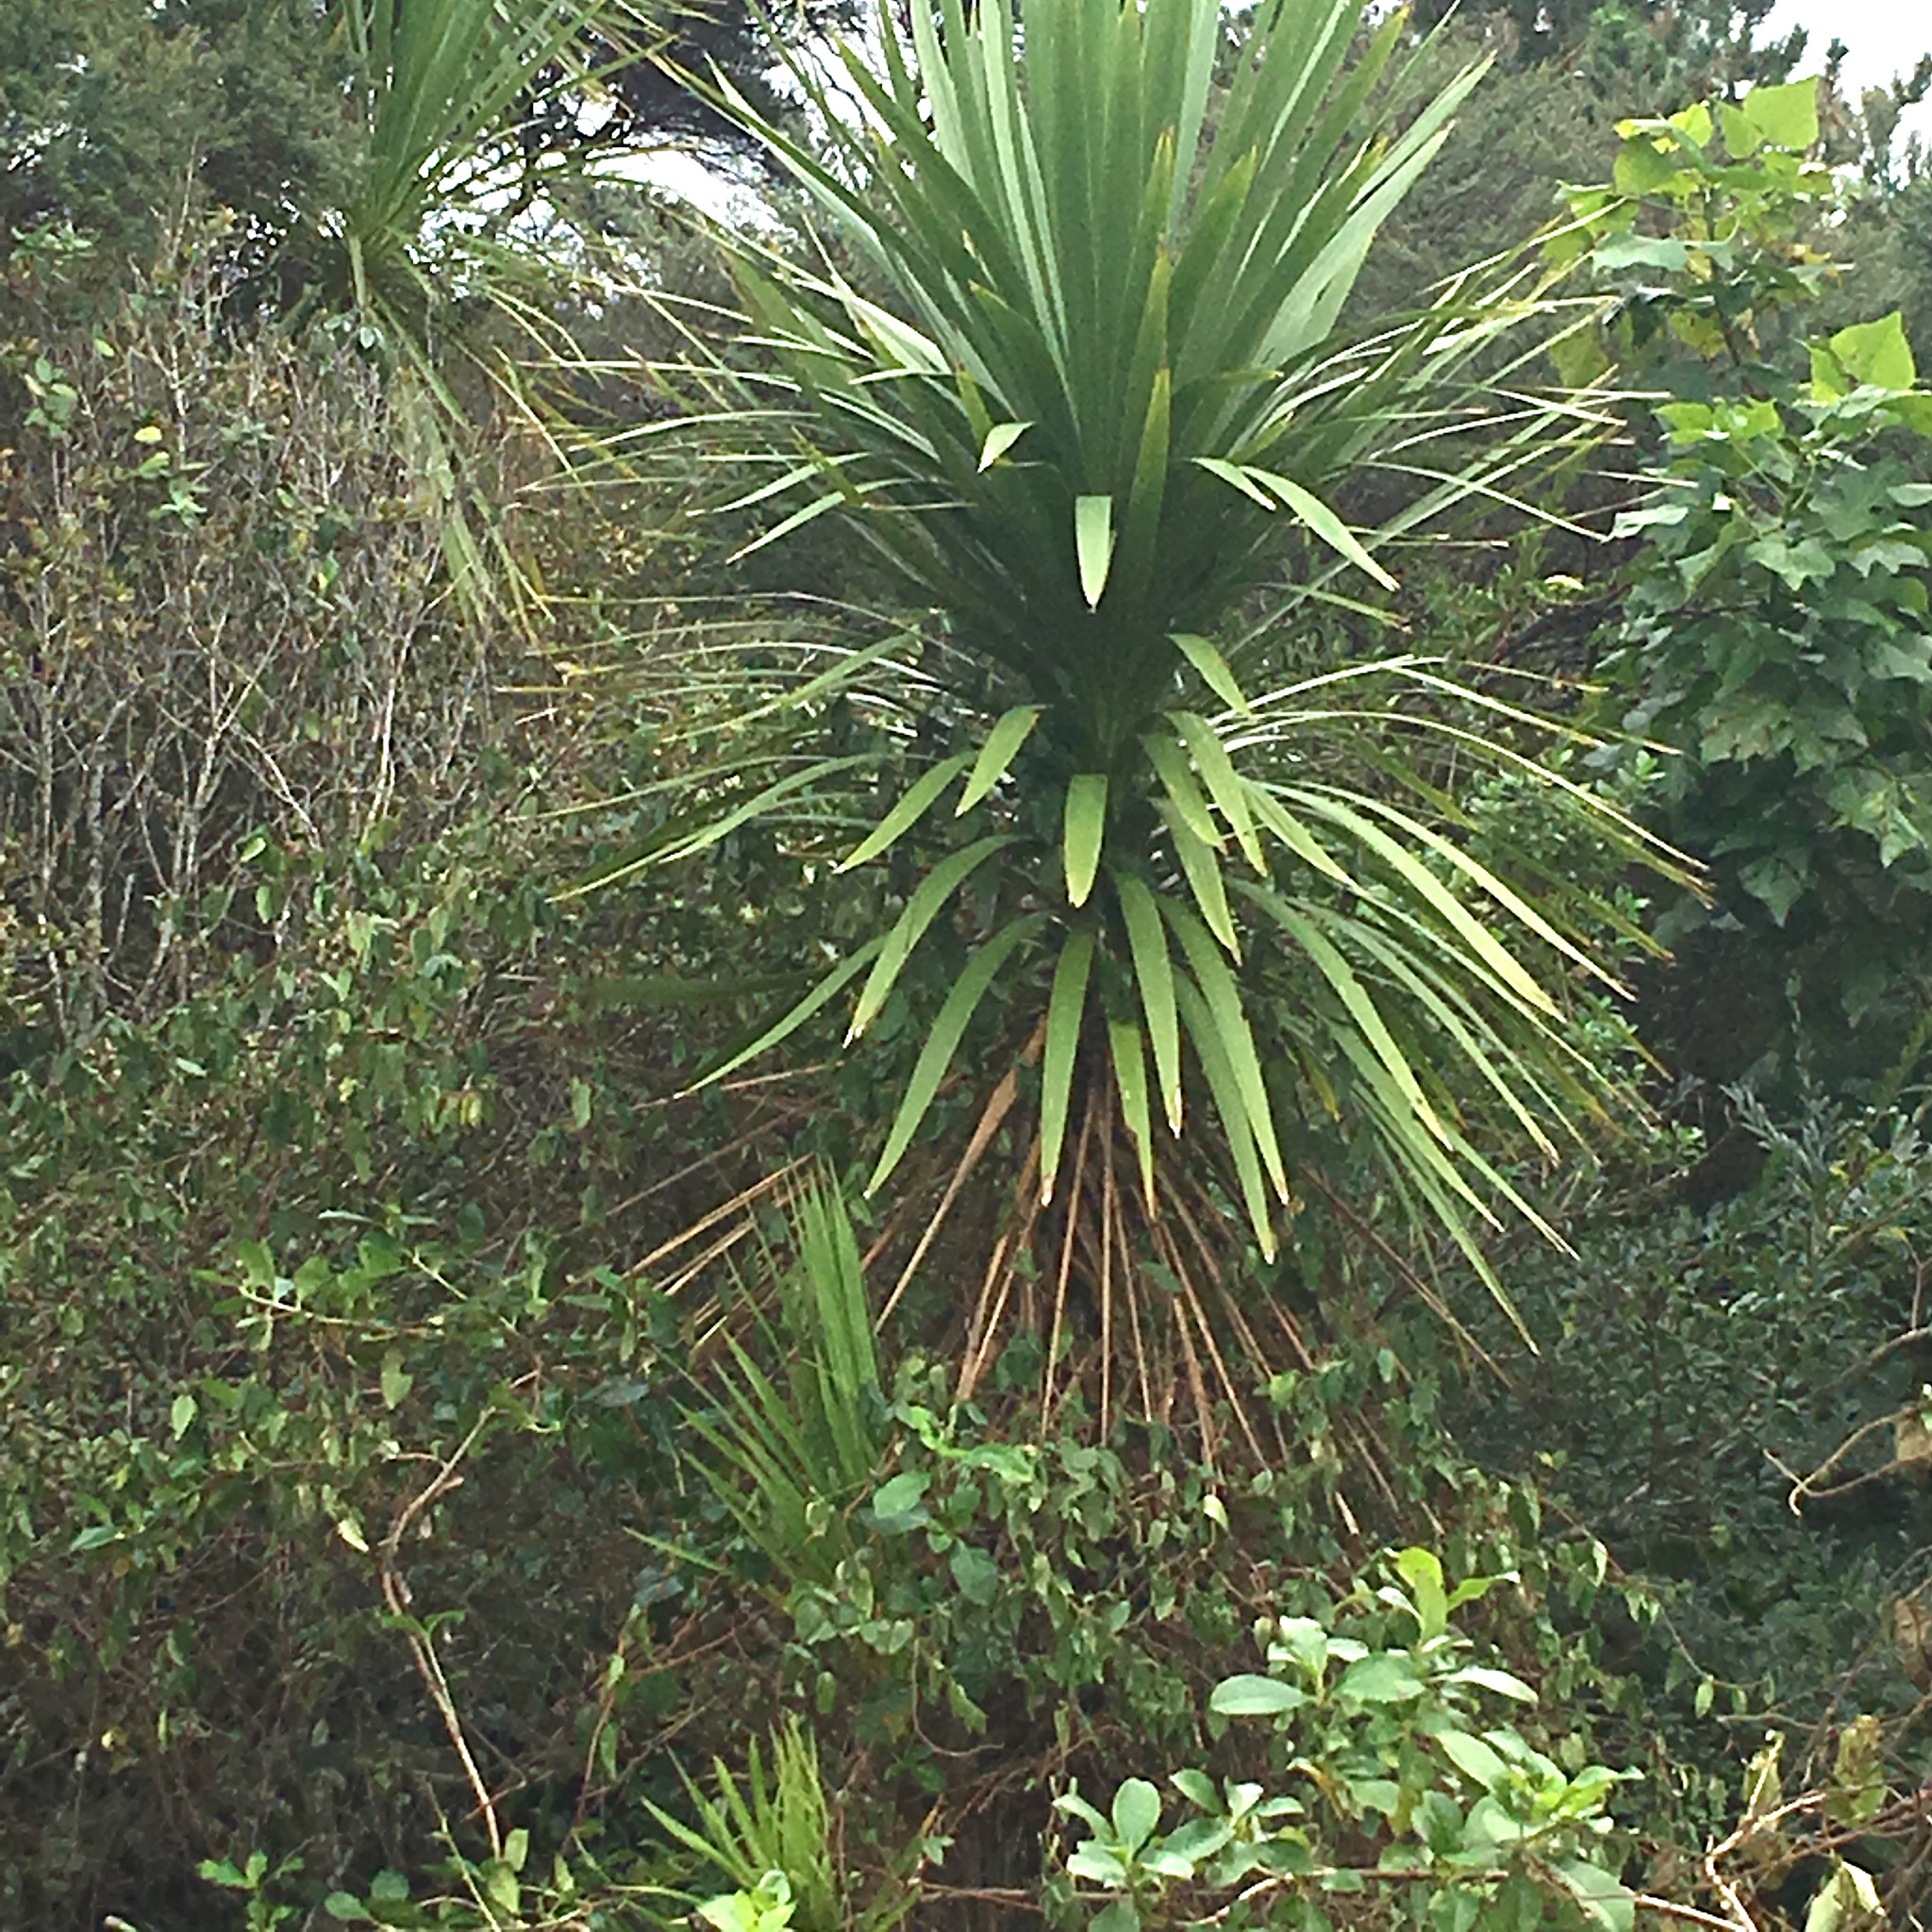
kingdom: Plantae
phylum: Tracheophyta
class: Liliopsida
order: Asparagales
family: Asparagaceae
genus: Cordyline
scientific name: Cordyline australis
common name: Cabbage-palm
